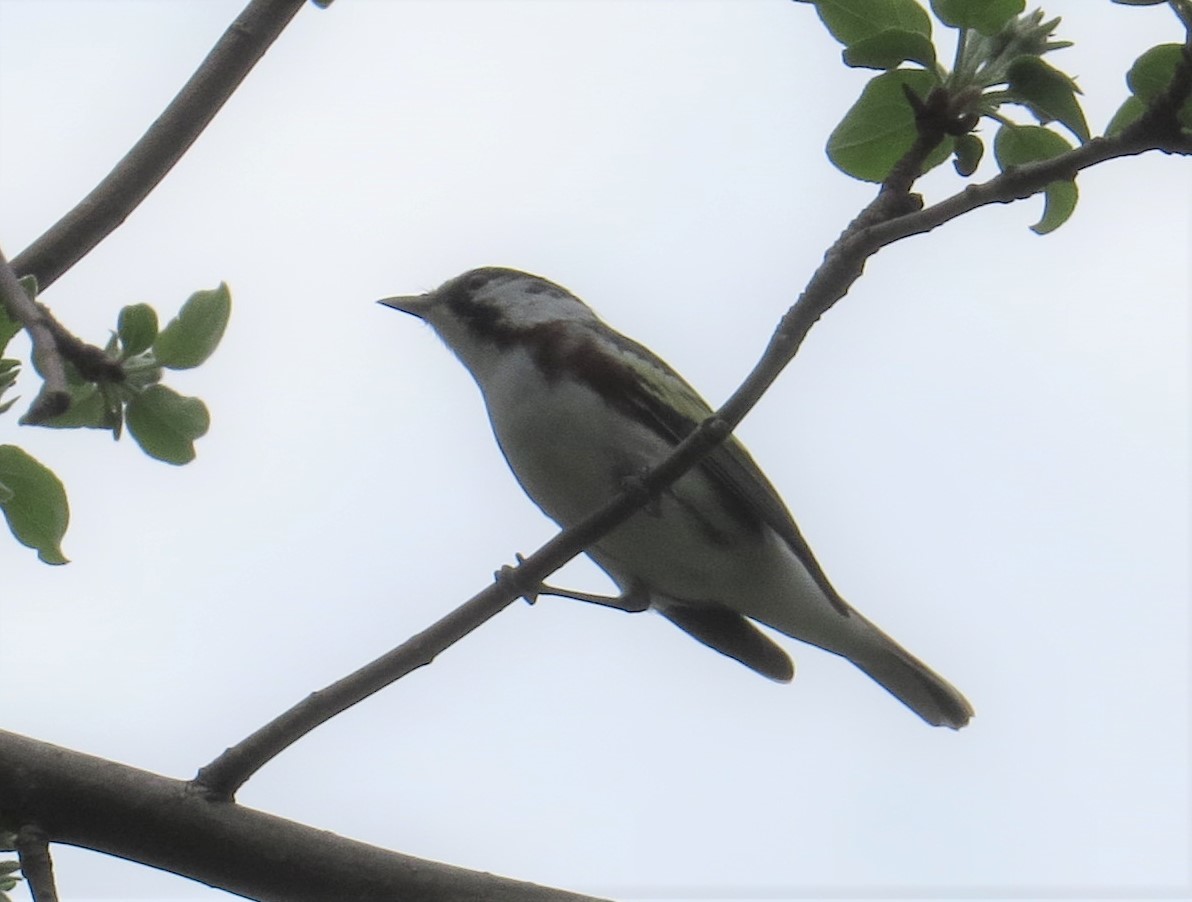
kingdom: Animalia
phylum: Chordata
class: Aves
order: Passeriformes
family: Parulidae
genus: Setophaga
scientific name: Setophaga pensylvanica
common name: Chestnut-sided warbler
